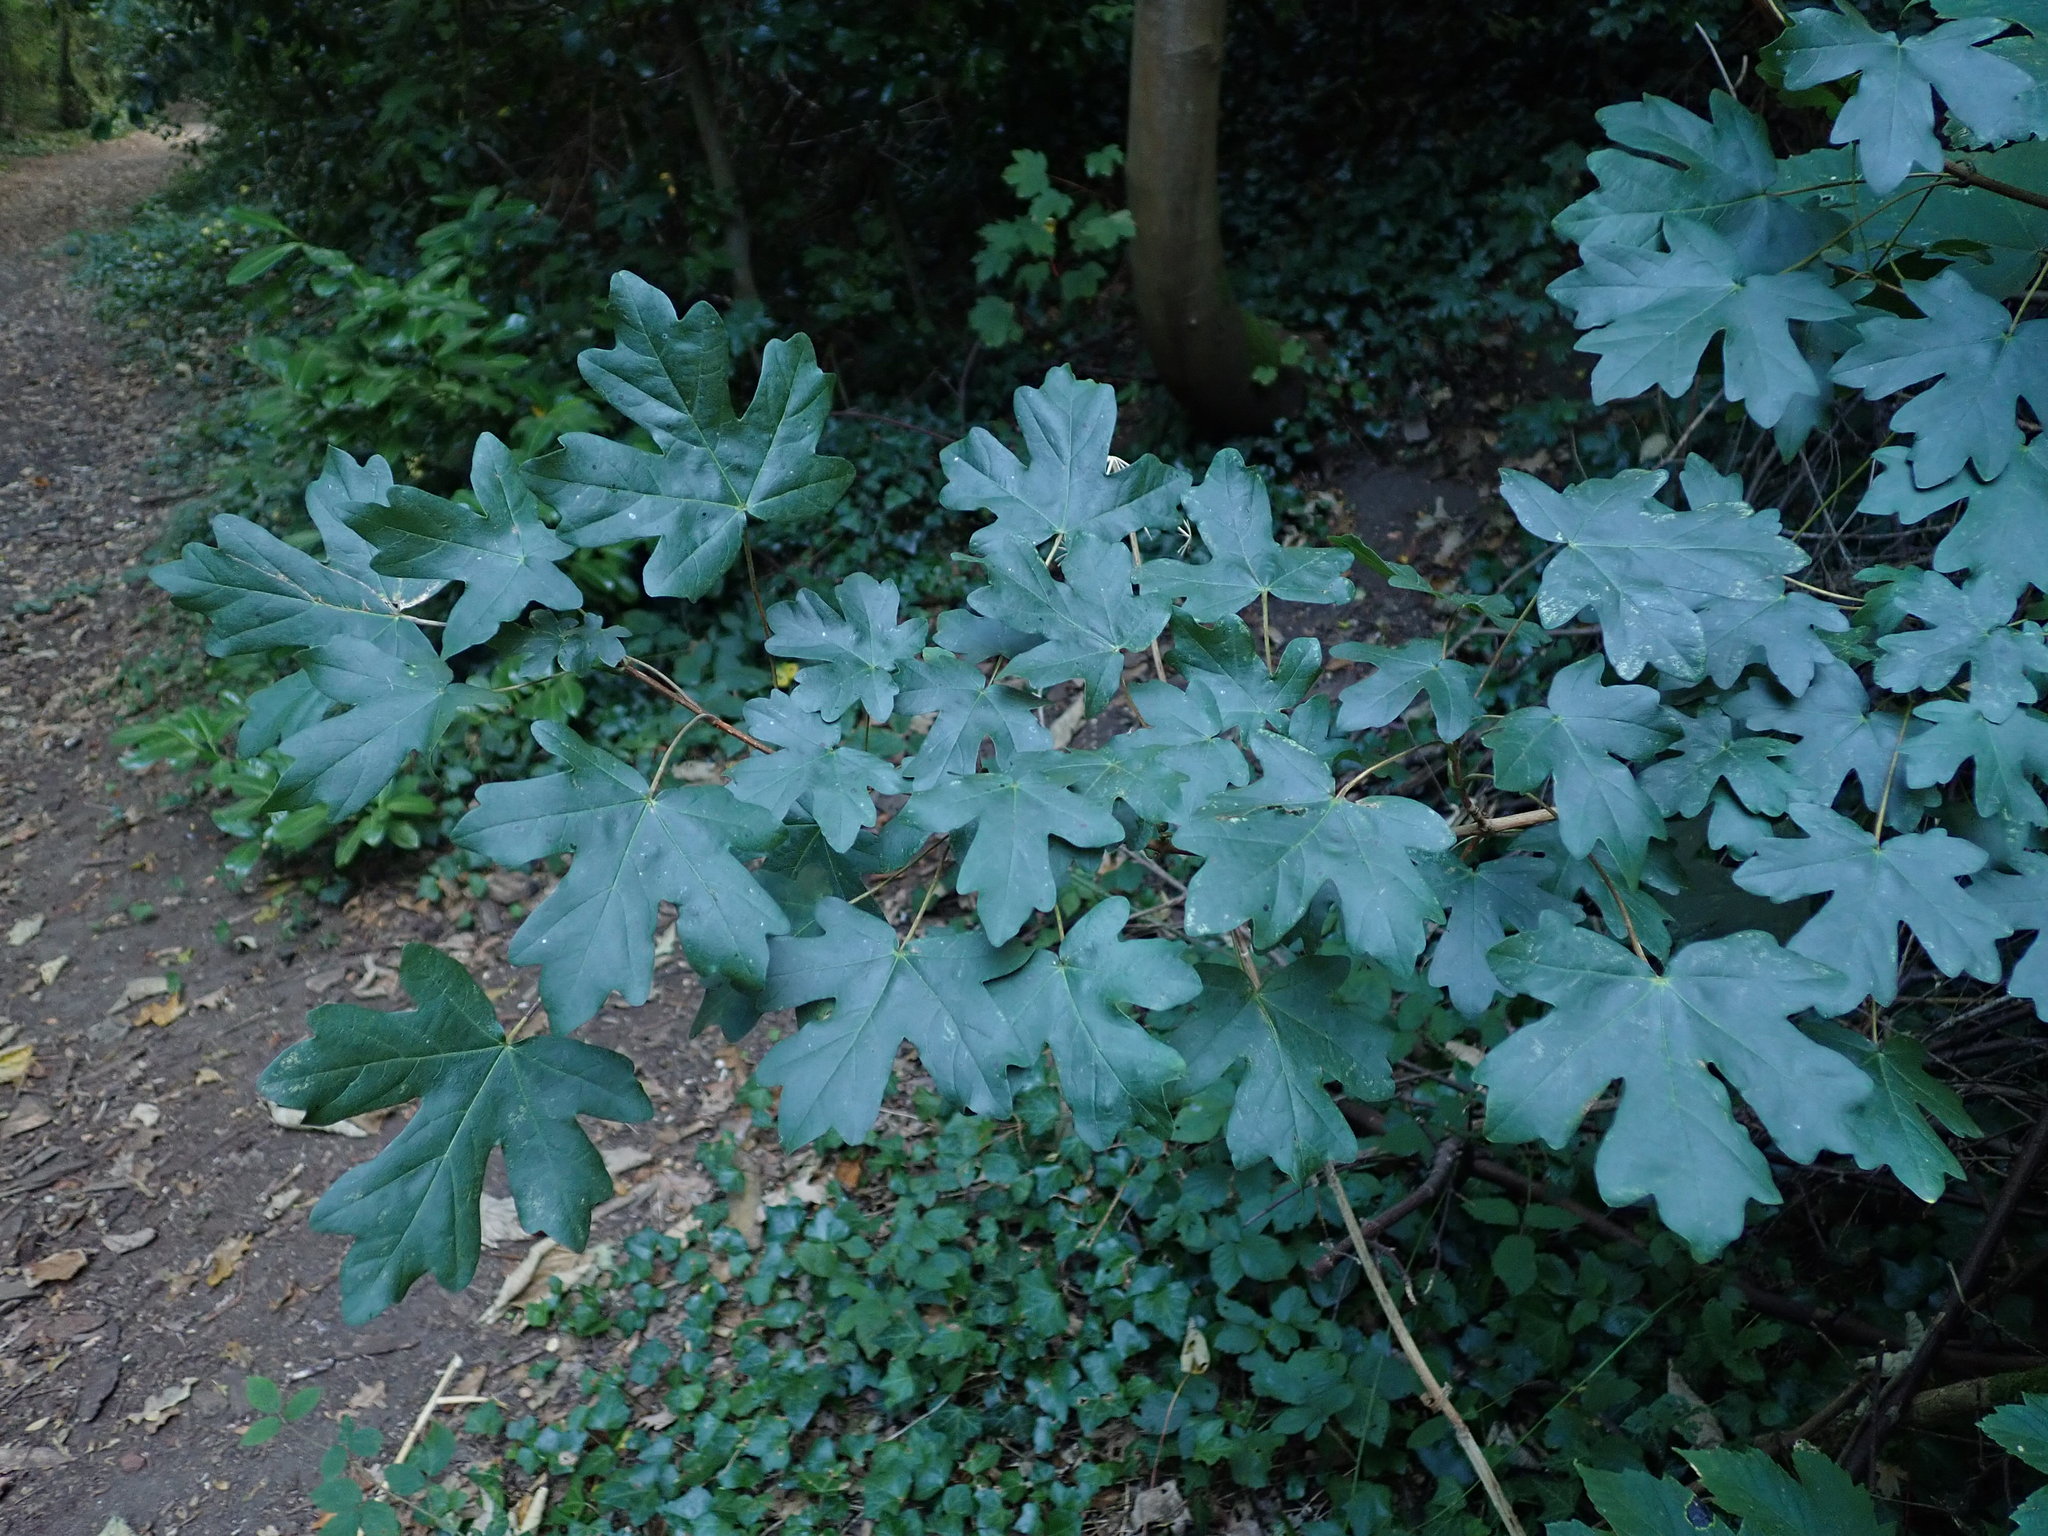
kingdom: Plantae
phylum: Tracheophyta
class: Magnoliopsida
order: Sapindales
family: Sapindaceae
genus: Acer
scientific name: Acer campestre
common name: Field maple
